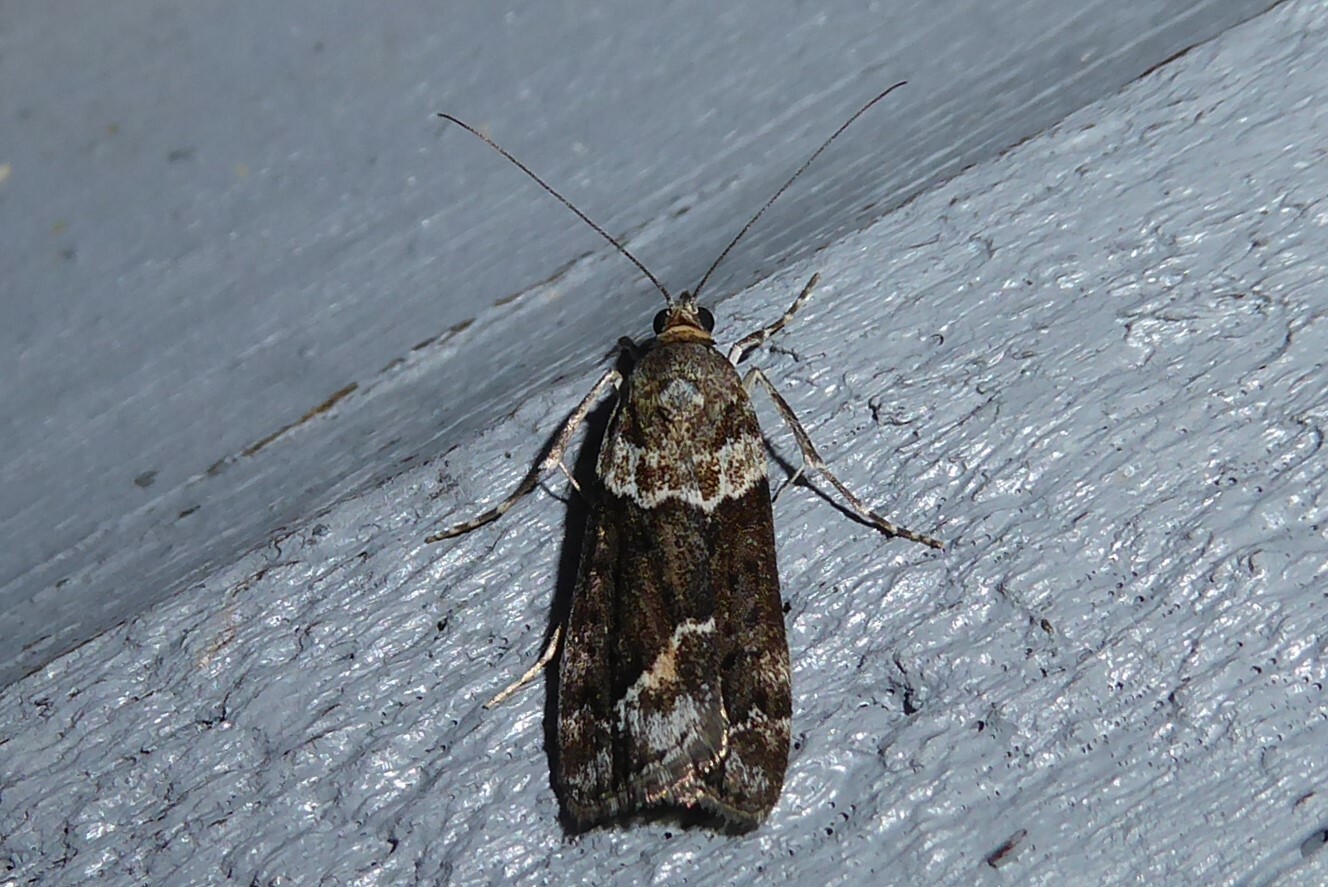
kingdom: Animalia
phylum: Arthropoda
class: Insecta
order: Lepidoptera
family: Crambidae
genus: Eudonia
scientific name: Eudonia submarginalis
